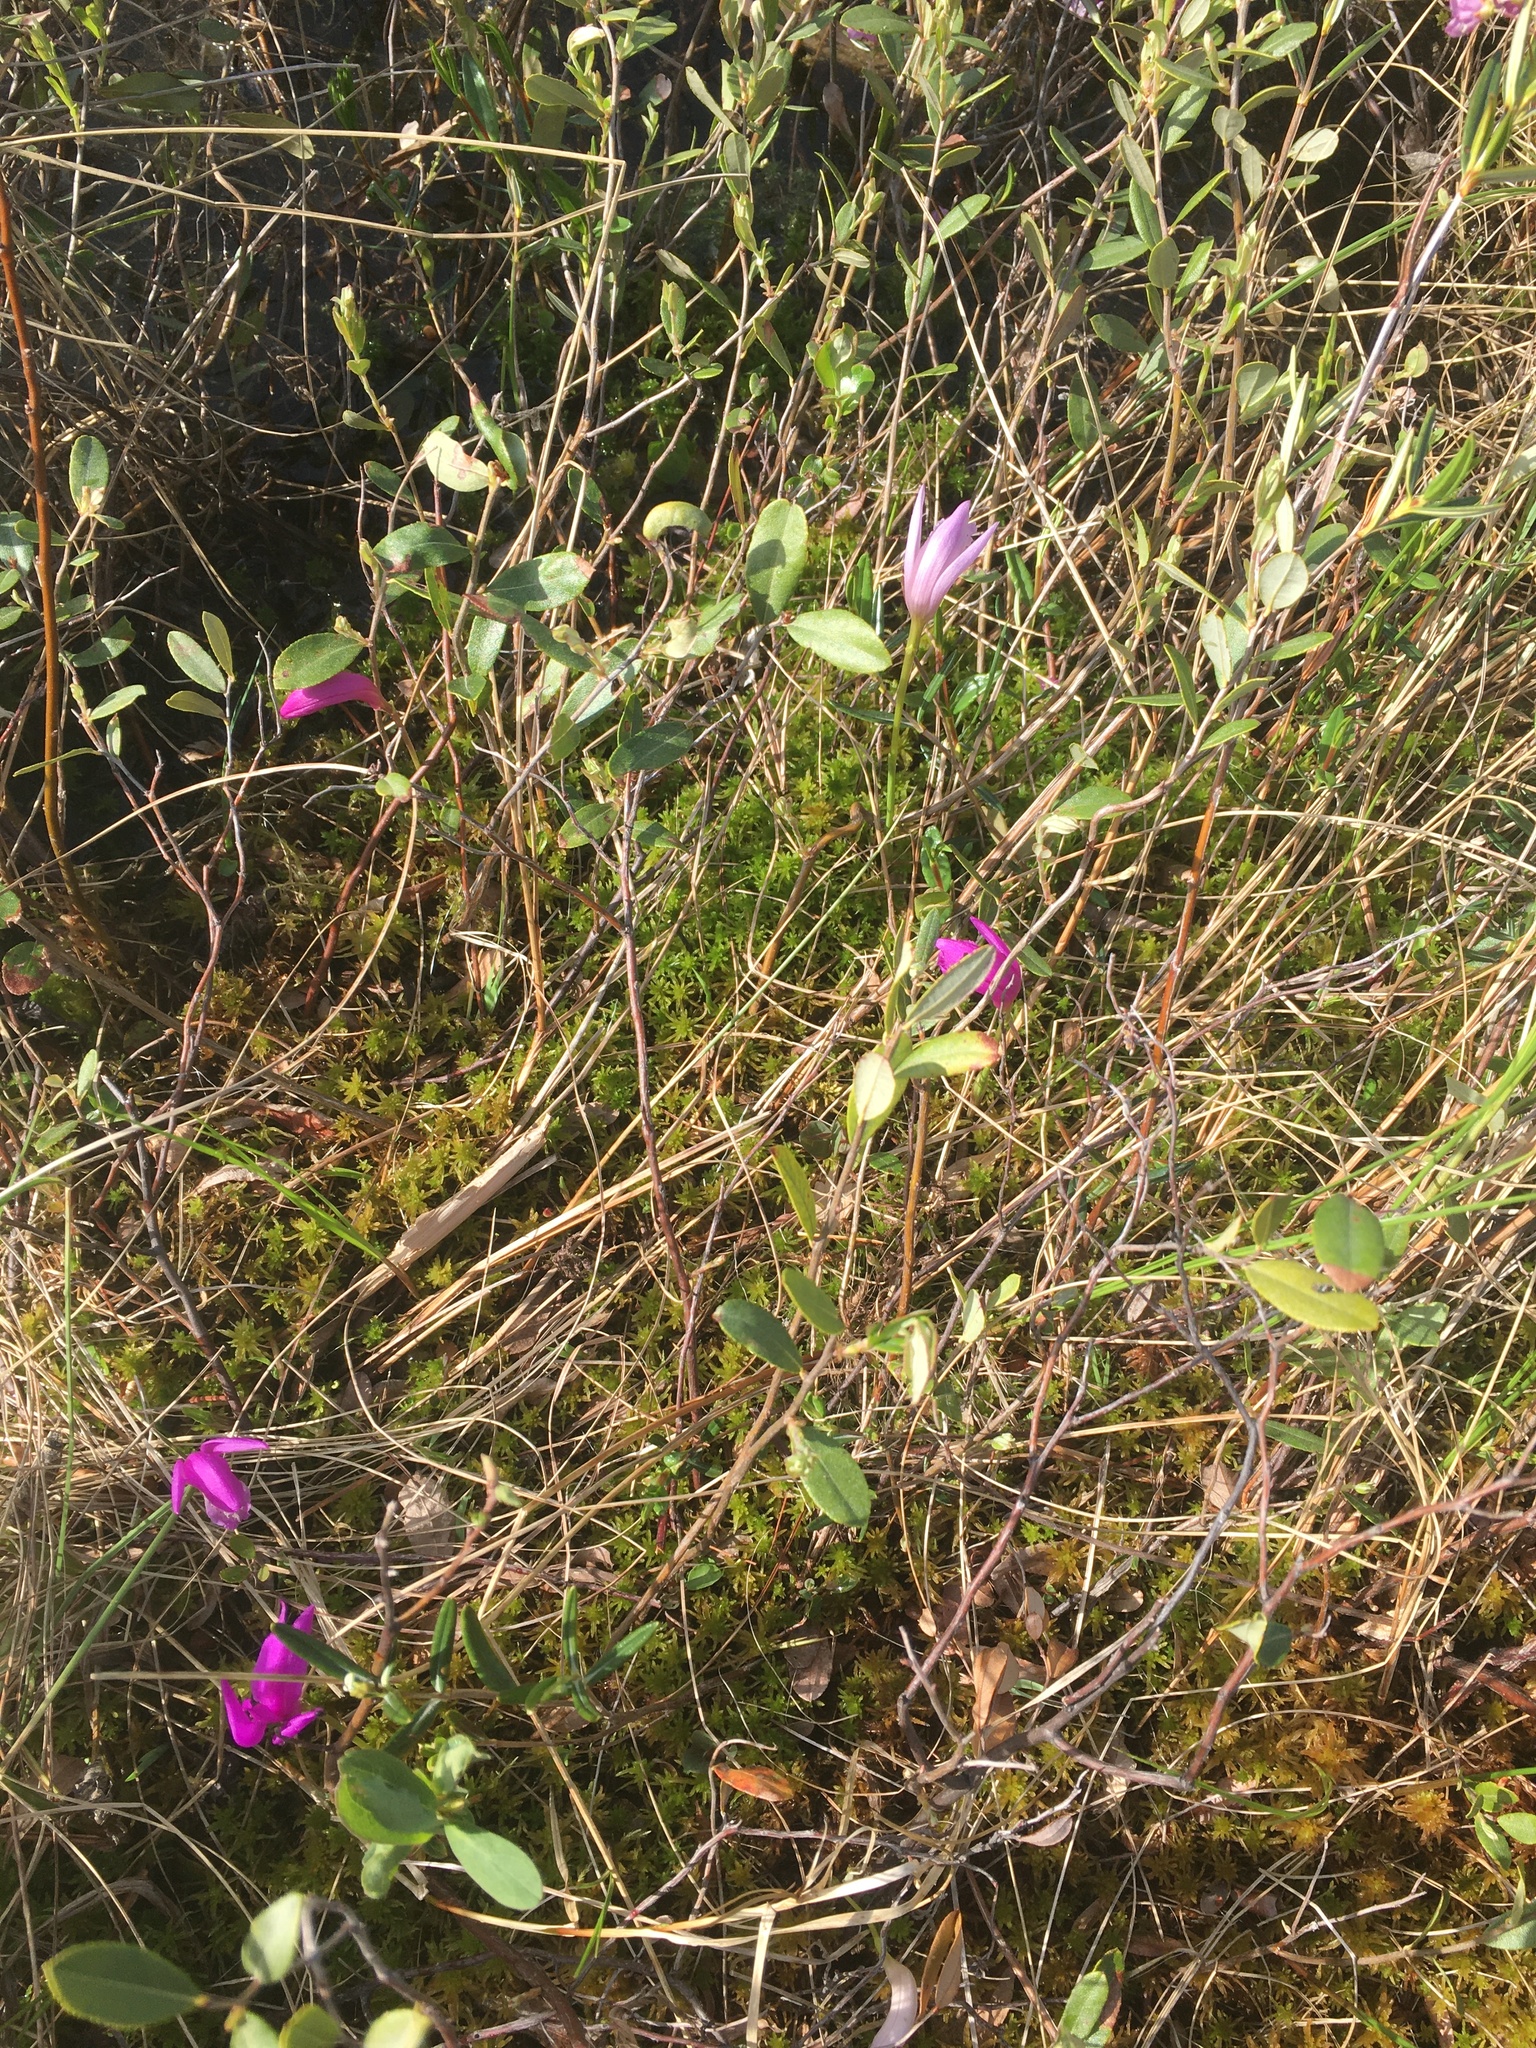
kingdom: Plantae
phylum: Tracheophyta
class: Liliopsida
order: Asparagales
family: Orchidaceae
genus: Arethusa
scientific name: Arethusa bulbosa
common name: Arethusa
